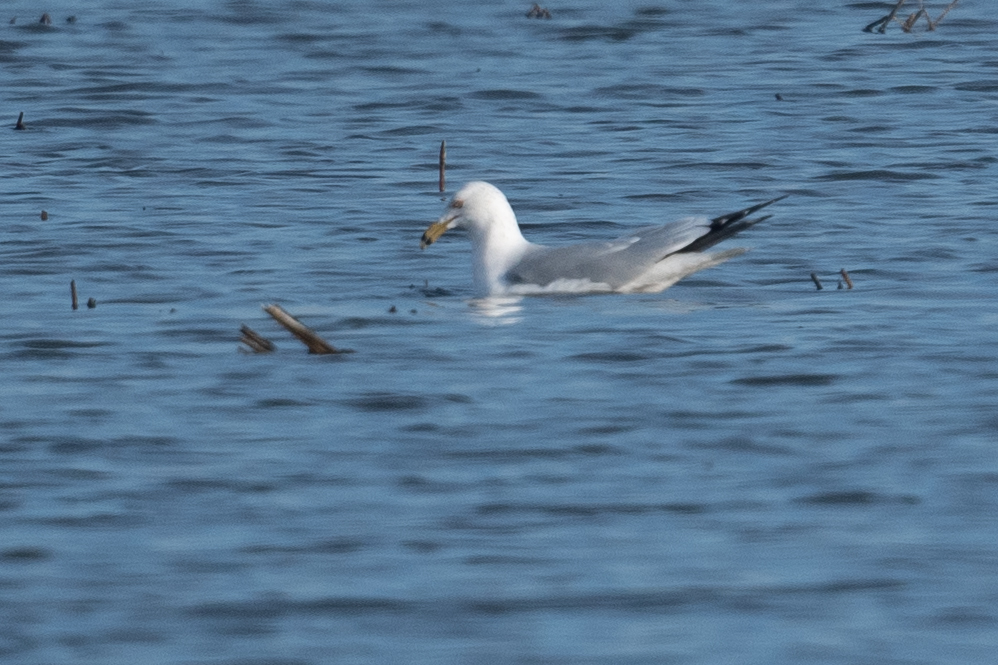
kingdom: Animalia
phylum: Chordata
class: Aves
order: Charadriiformes
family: Laridae
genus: Larus
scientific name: Larus delawarensis
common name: Ring-billed gull
